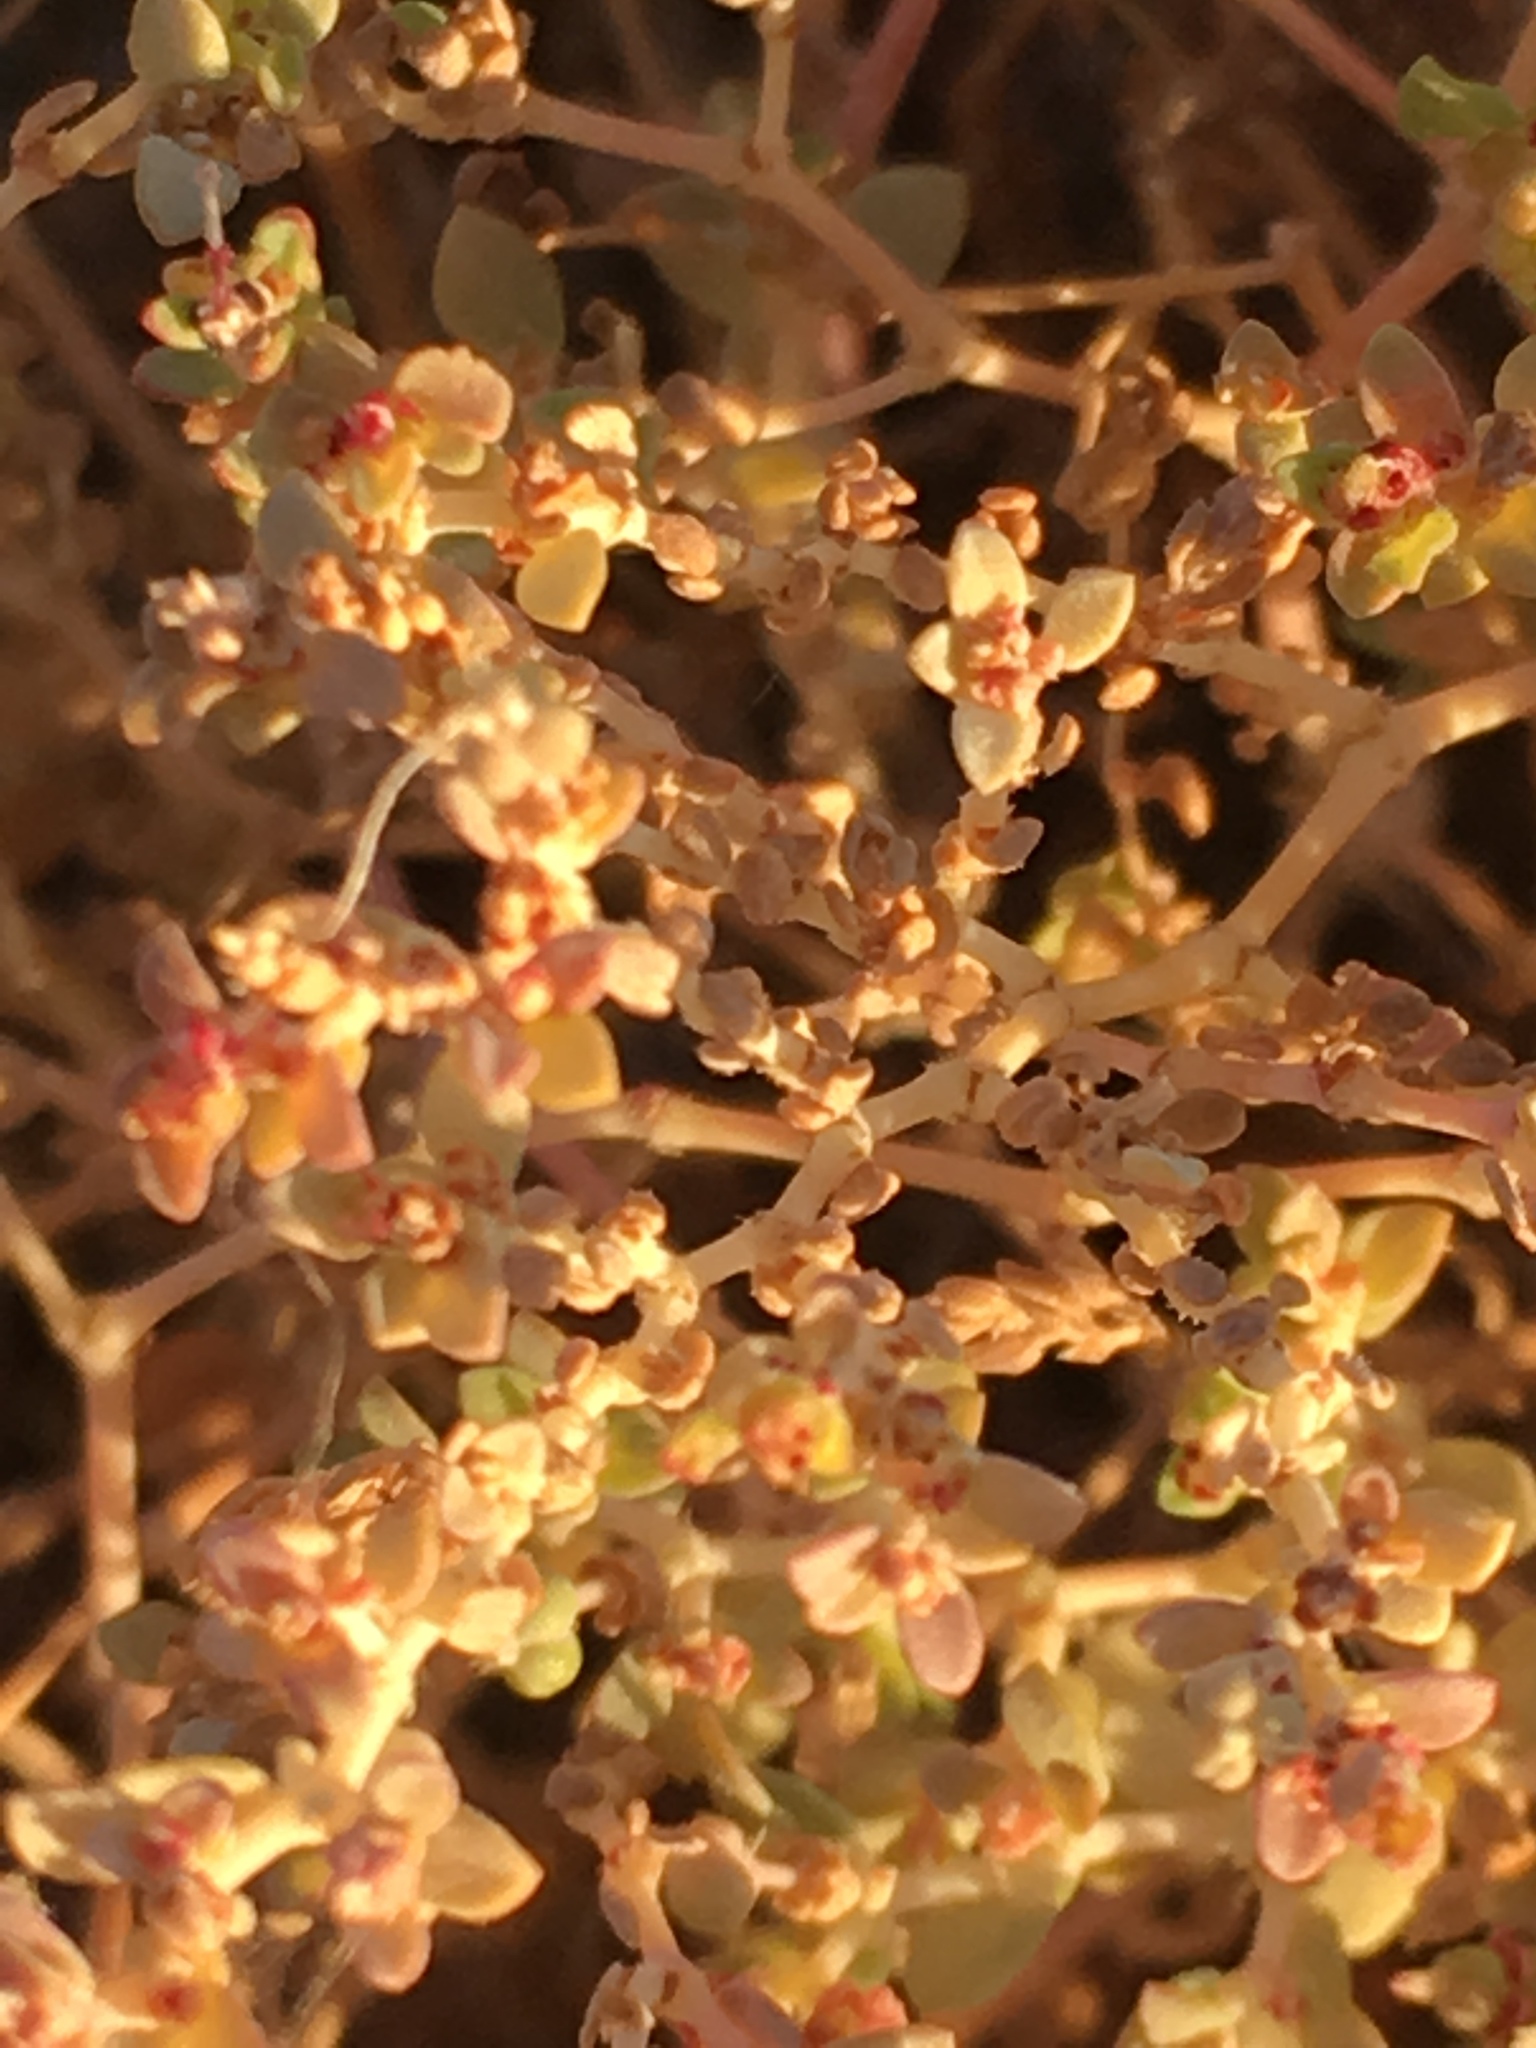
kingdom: Plantae
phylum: Tracheophyta
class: Magnoliopsida
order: Malpighiales
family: Euphorbiaceae
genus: Euphorbia
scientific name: Euphorbia polycarpa
